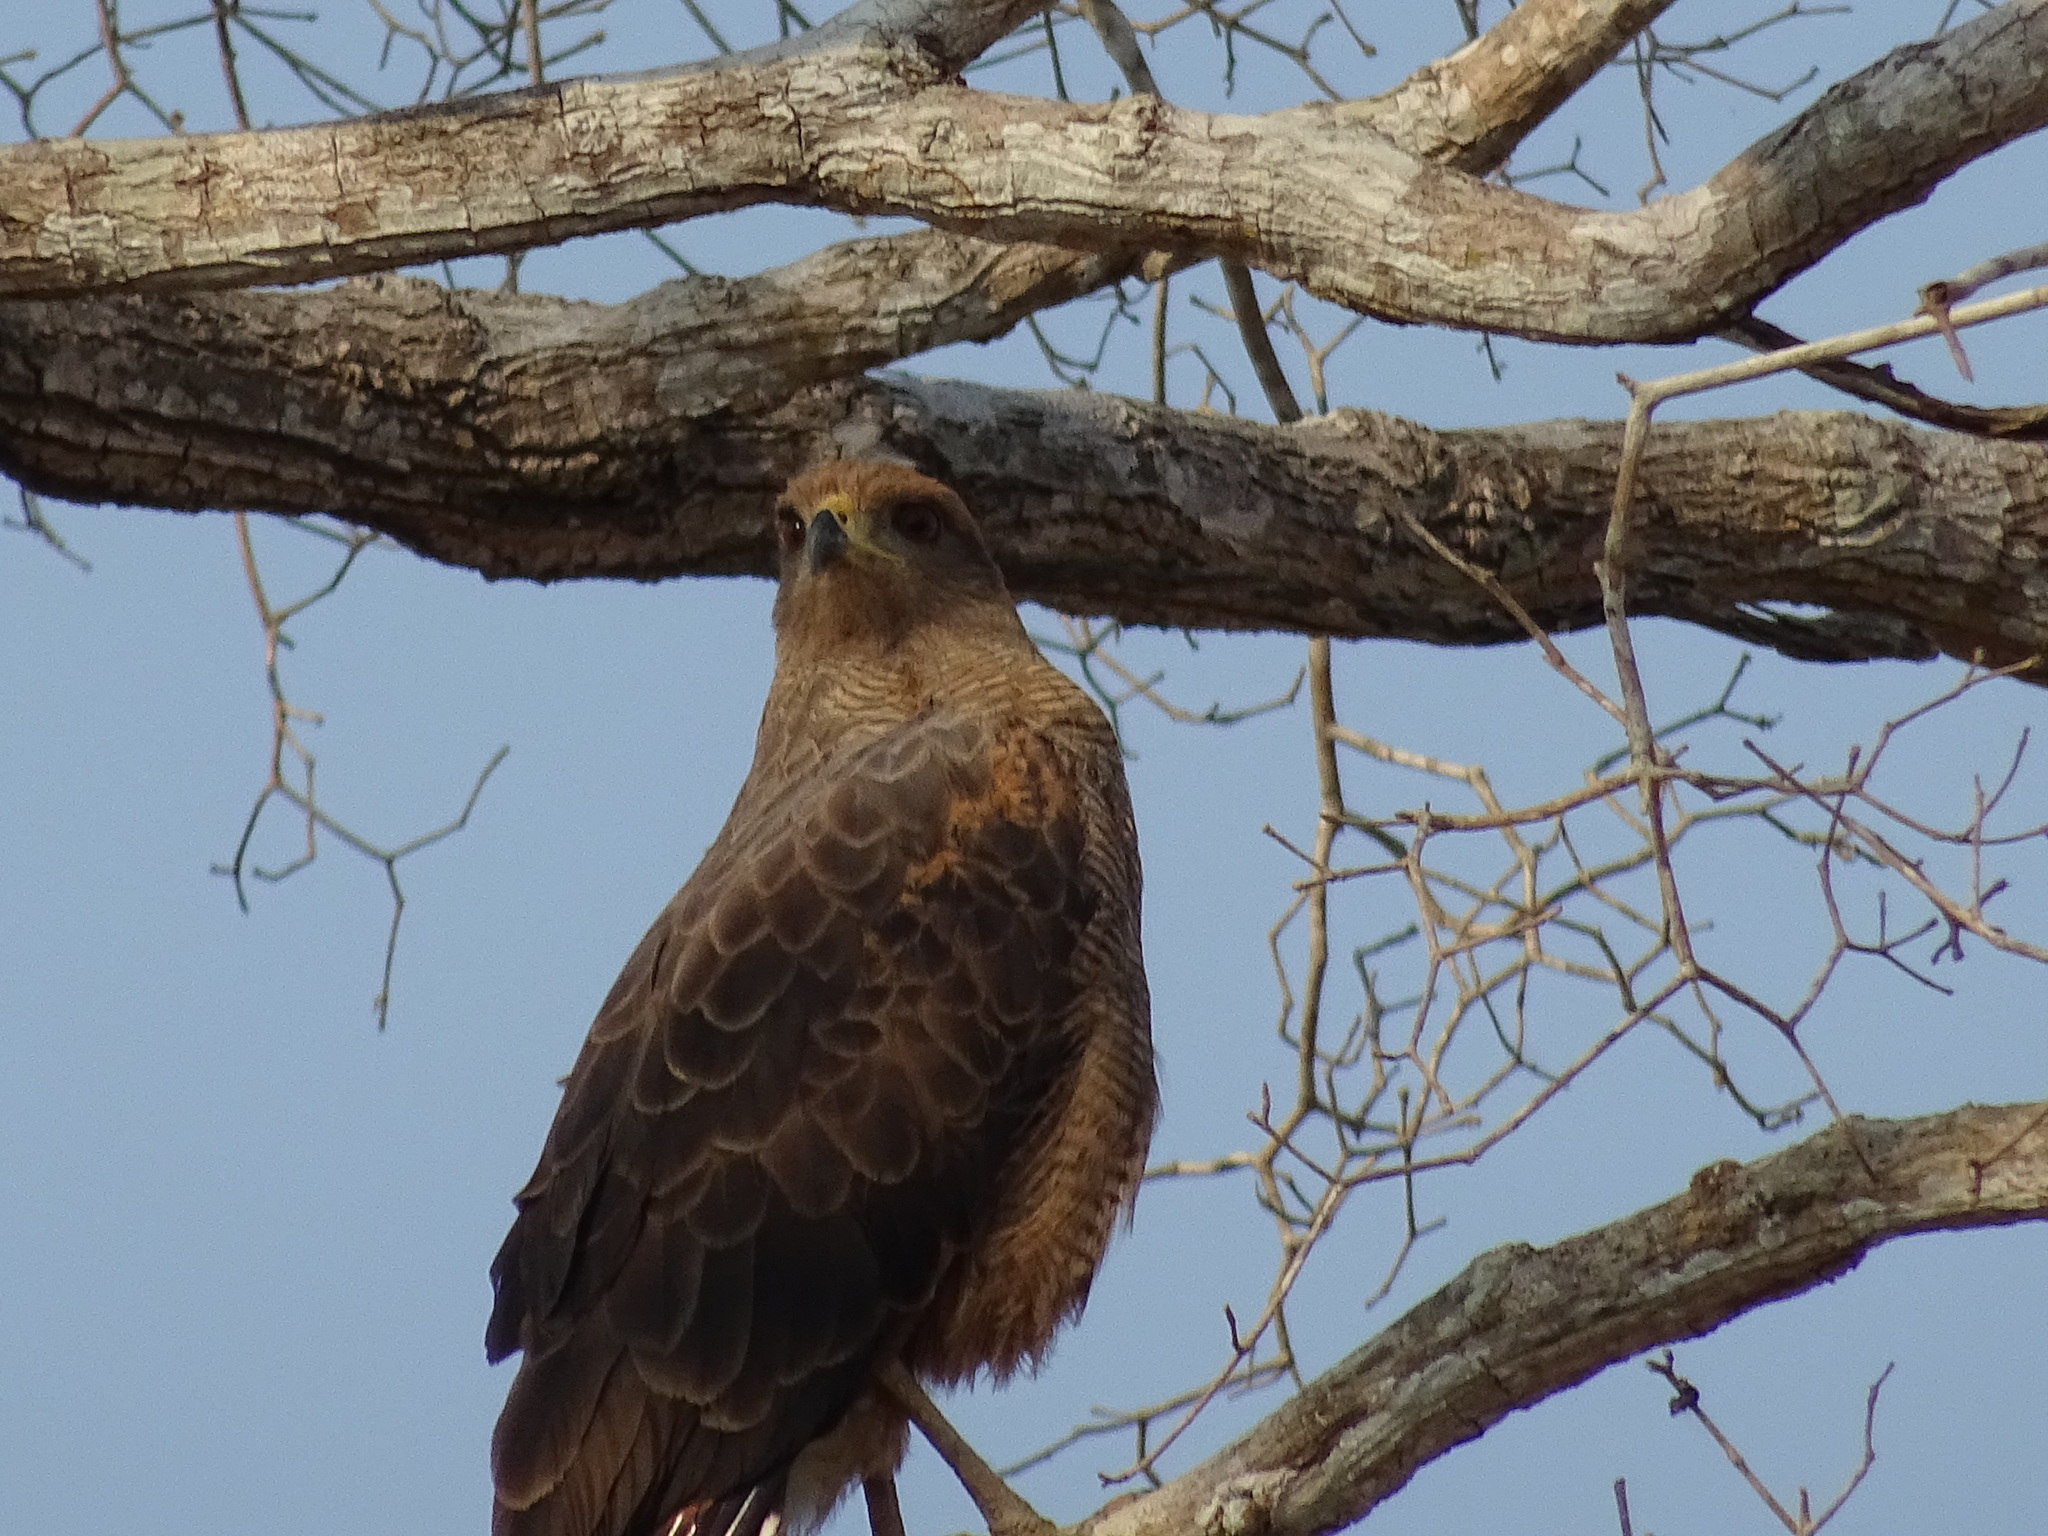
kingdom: Animalia
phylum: Chordata
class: Aves
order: Accipitriformes
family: Accipitridae
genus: Buteogallus
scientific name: Buteogallus meridionalis
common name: Savanna hawk
